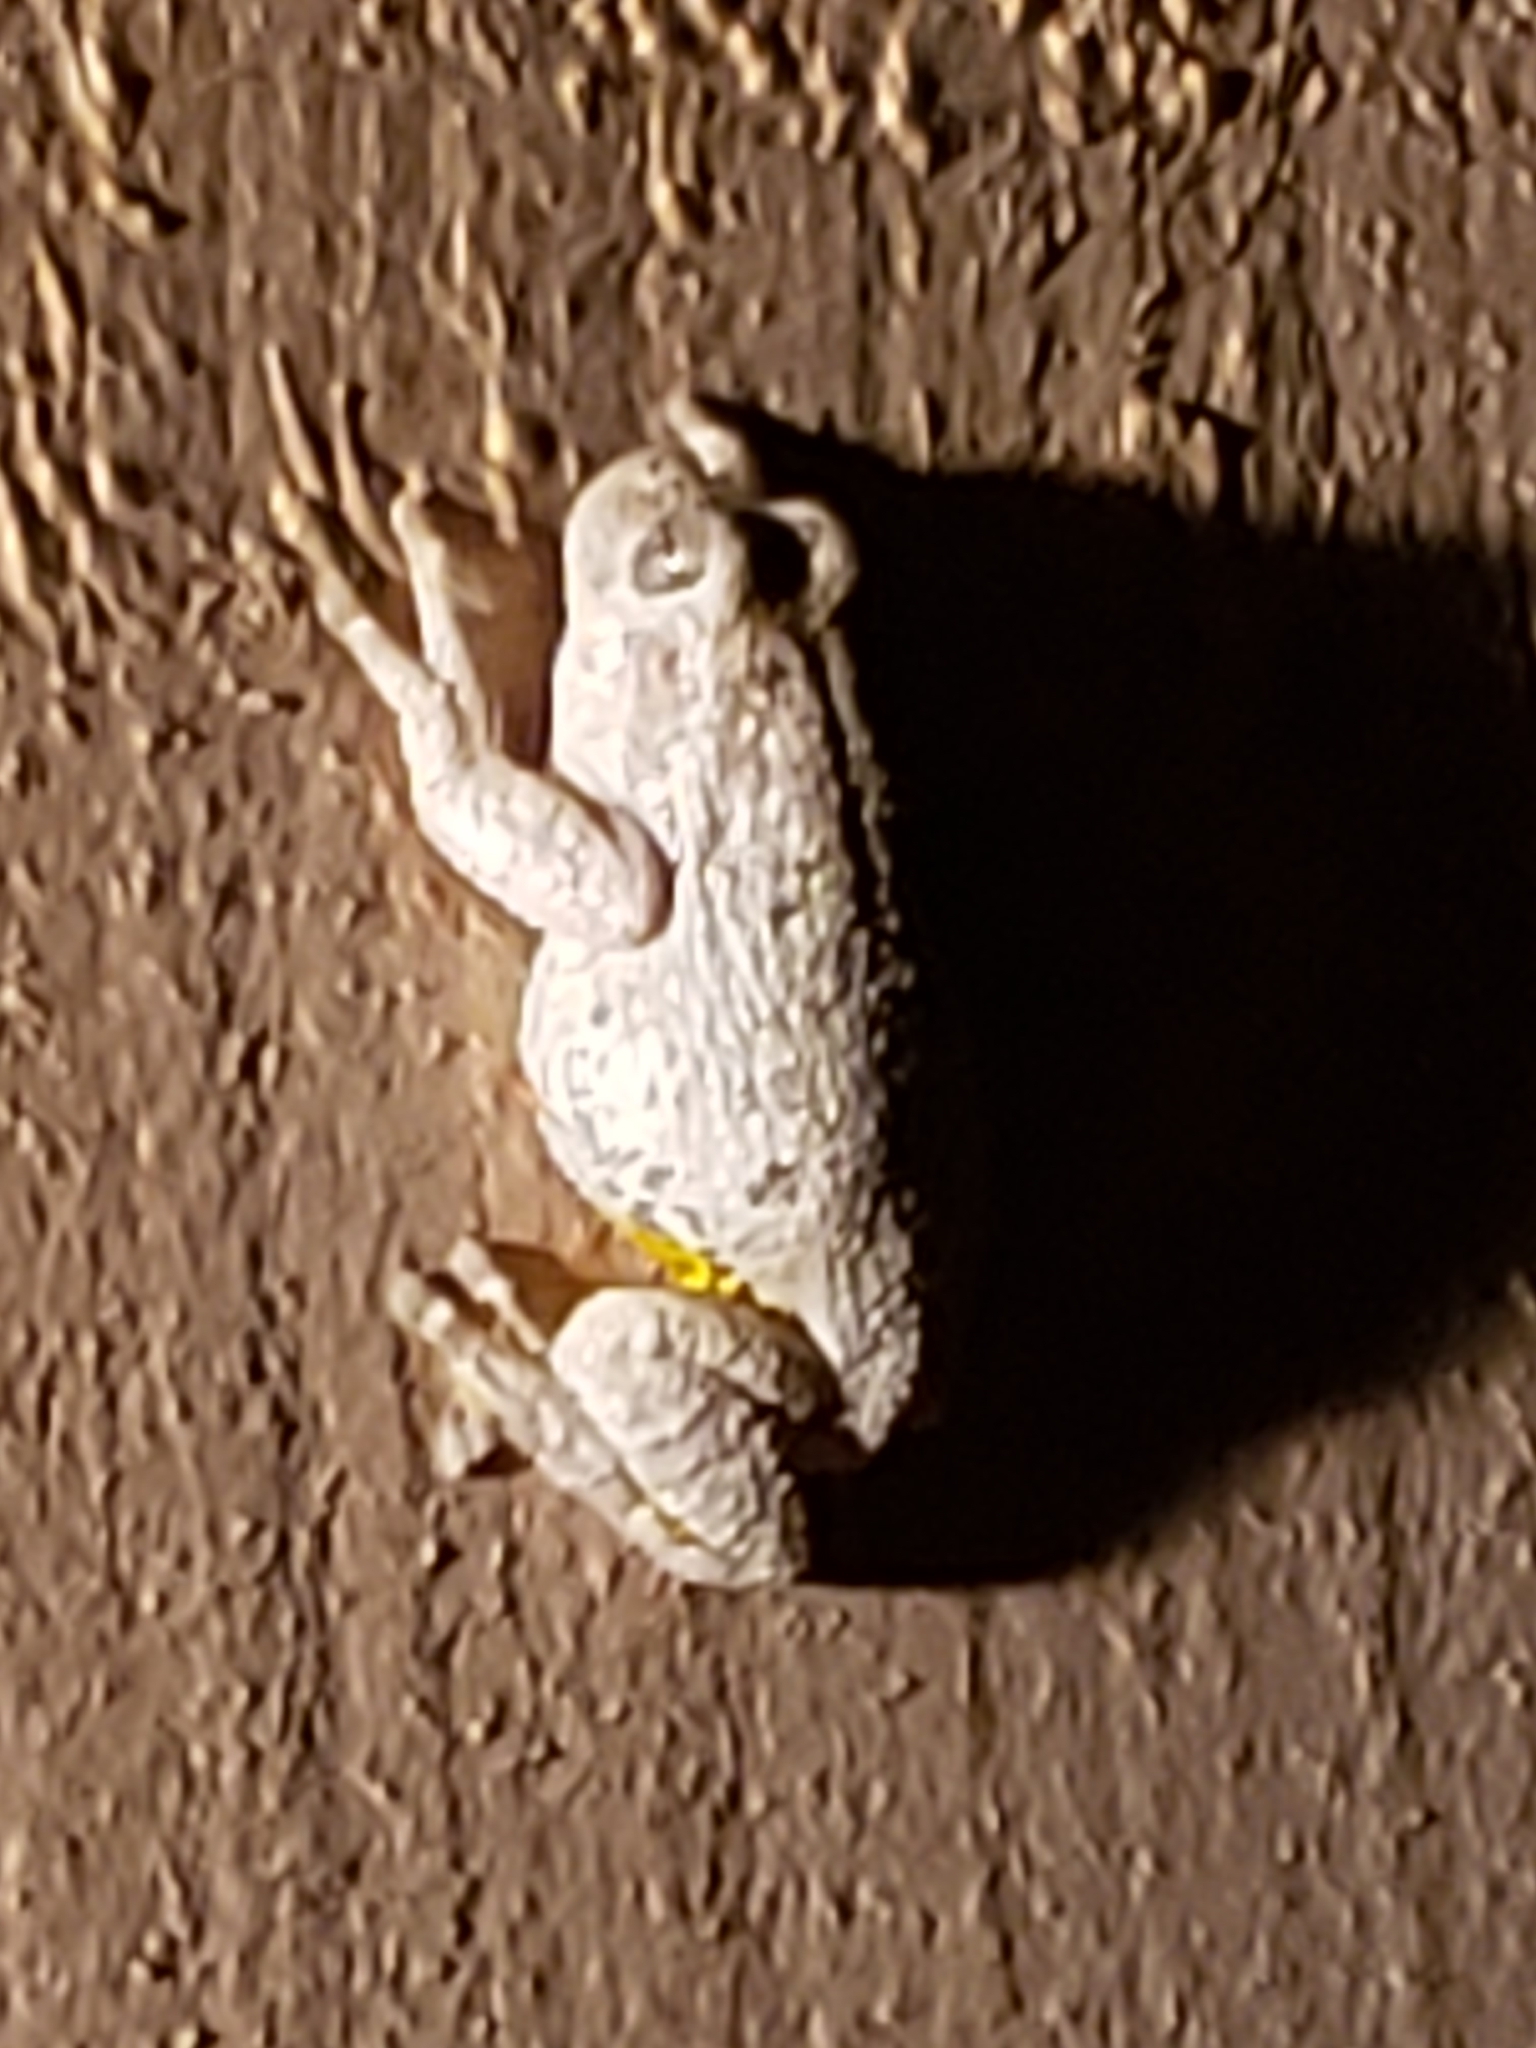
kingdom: Animalia
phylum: Chordata
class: Amphibia
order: Anura
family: Hylidae
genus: Hyla
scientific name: Hyla
